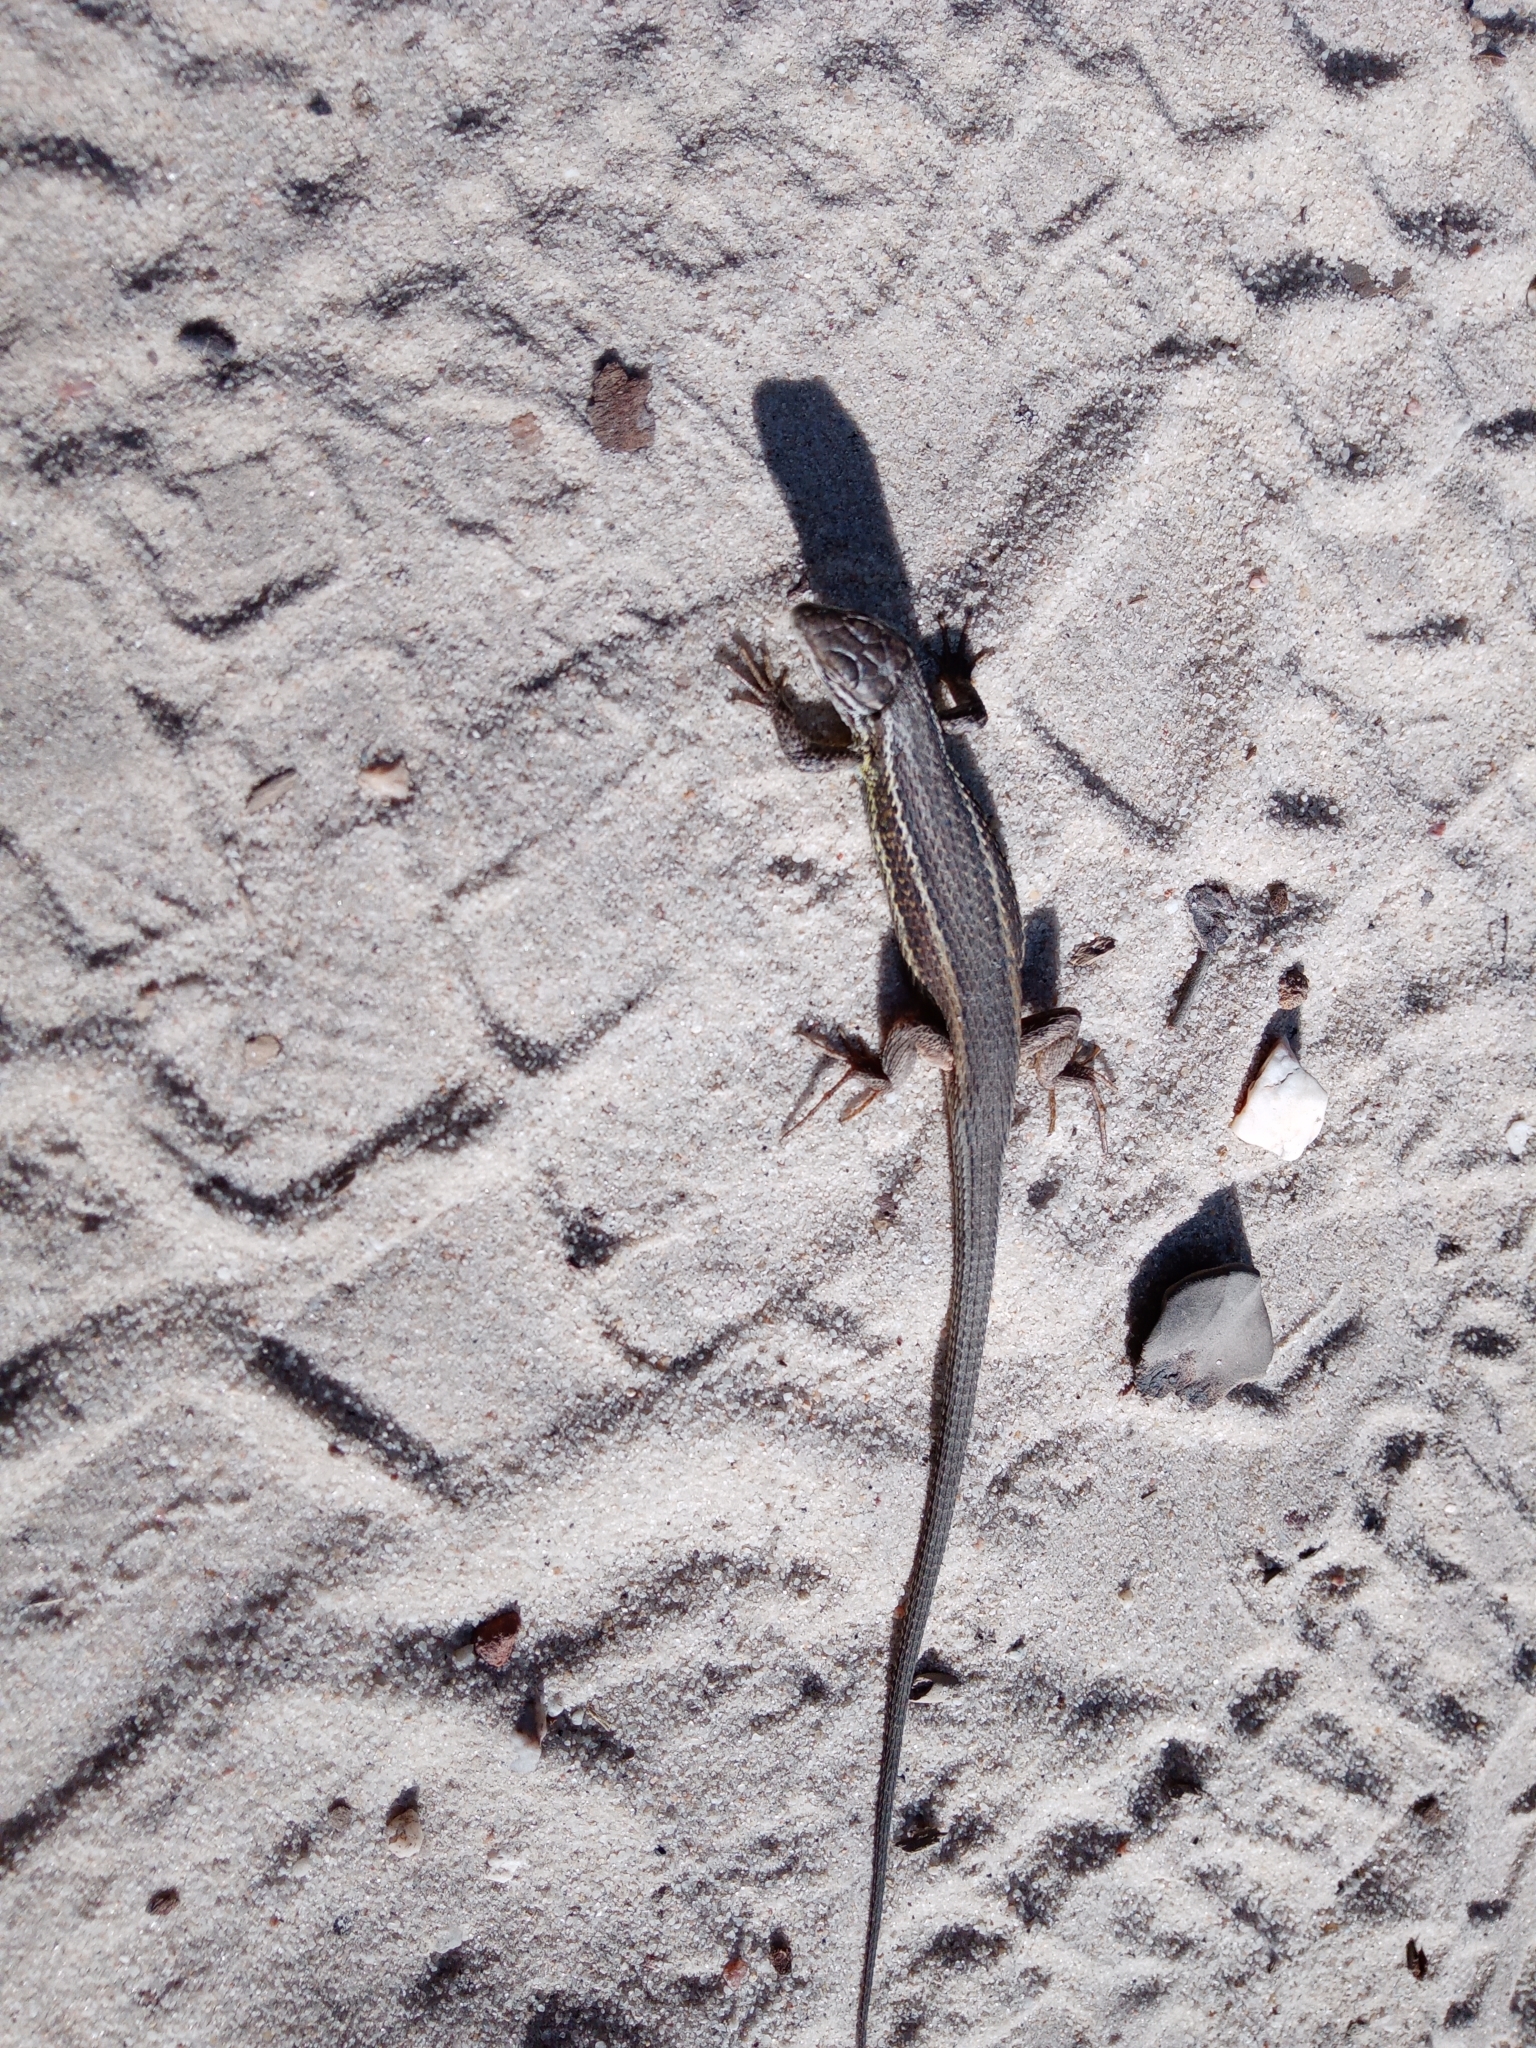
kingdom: Animalia
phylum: Chordata
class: Squamata
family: Lacertidae
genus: Psammodromus
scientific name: Psammodromus algirus
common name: Algerian psammodromus
